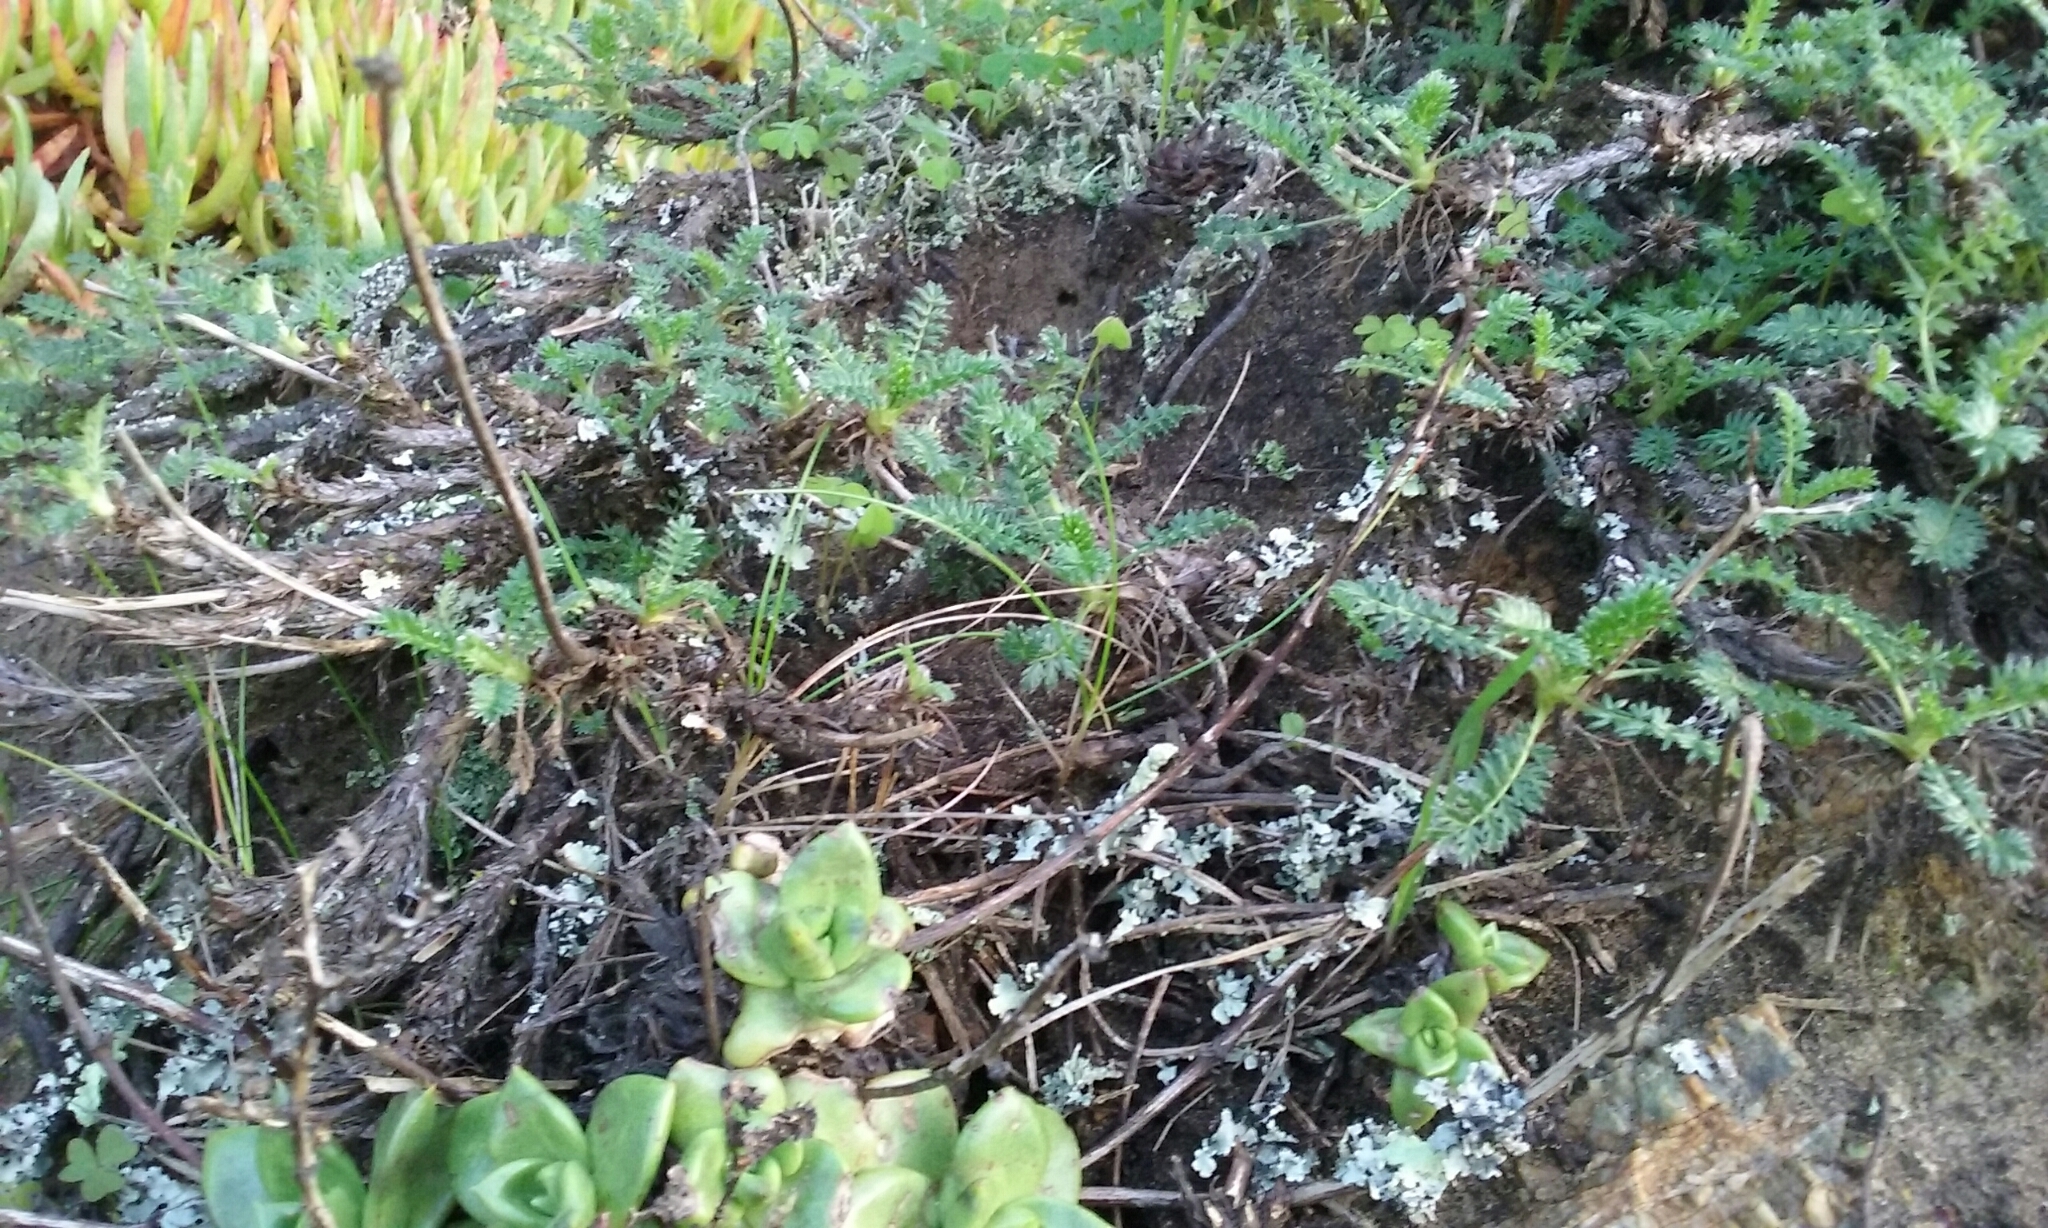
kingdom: Plantae
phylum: Tracheophyta
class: Magnoliopsida
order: Rosales
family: Rosaceae
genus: Acaena
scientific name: Acaena pinnatifida
